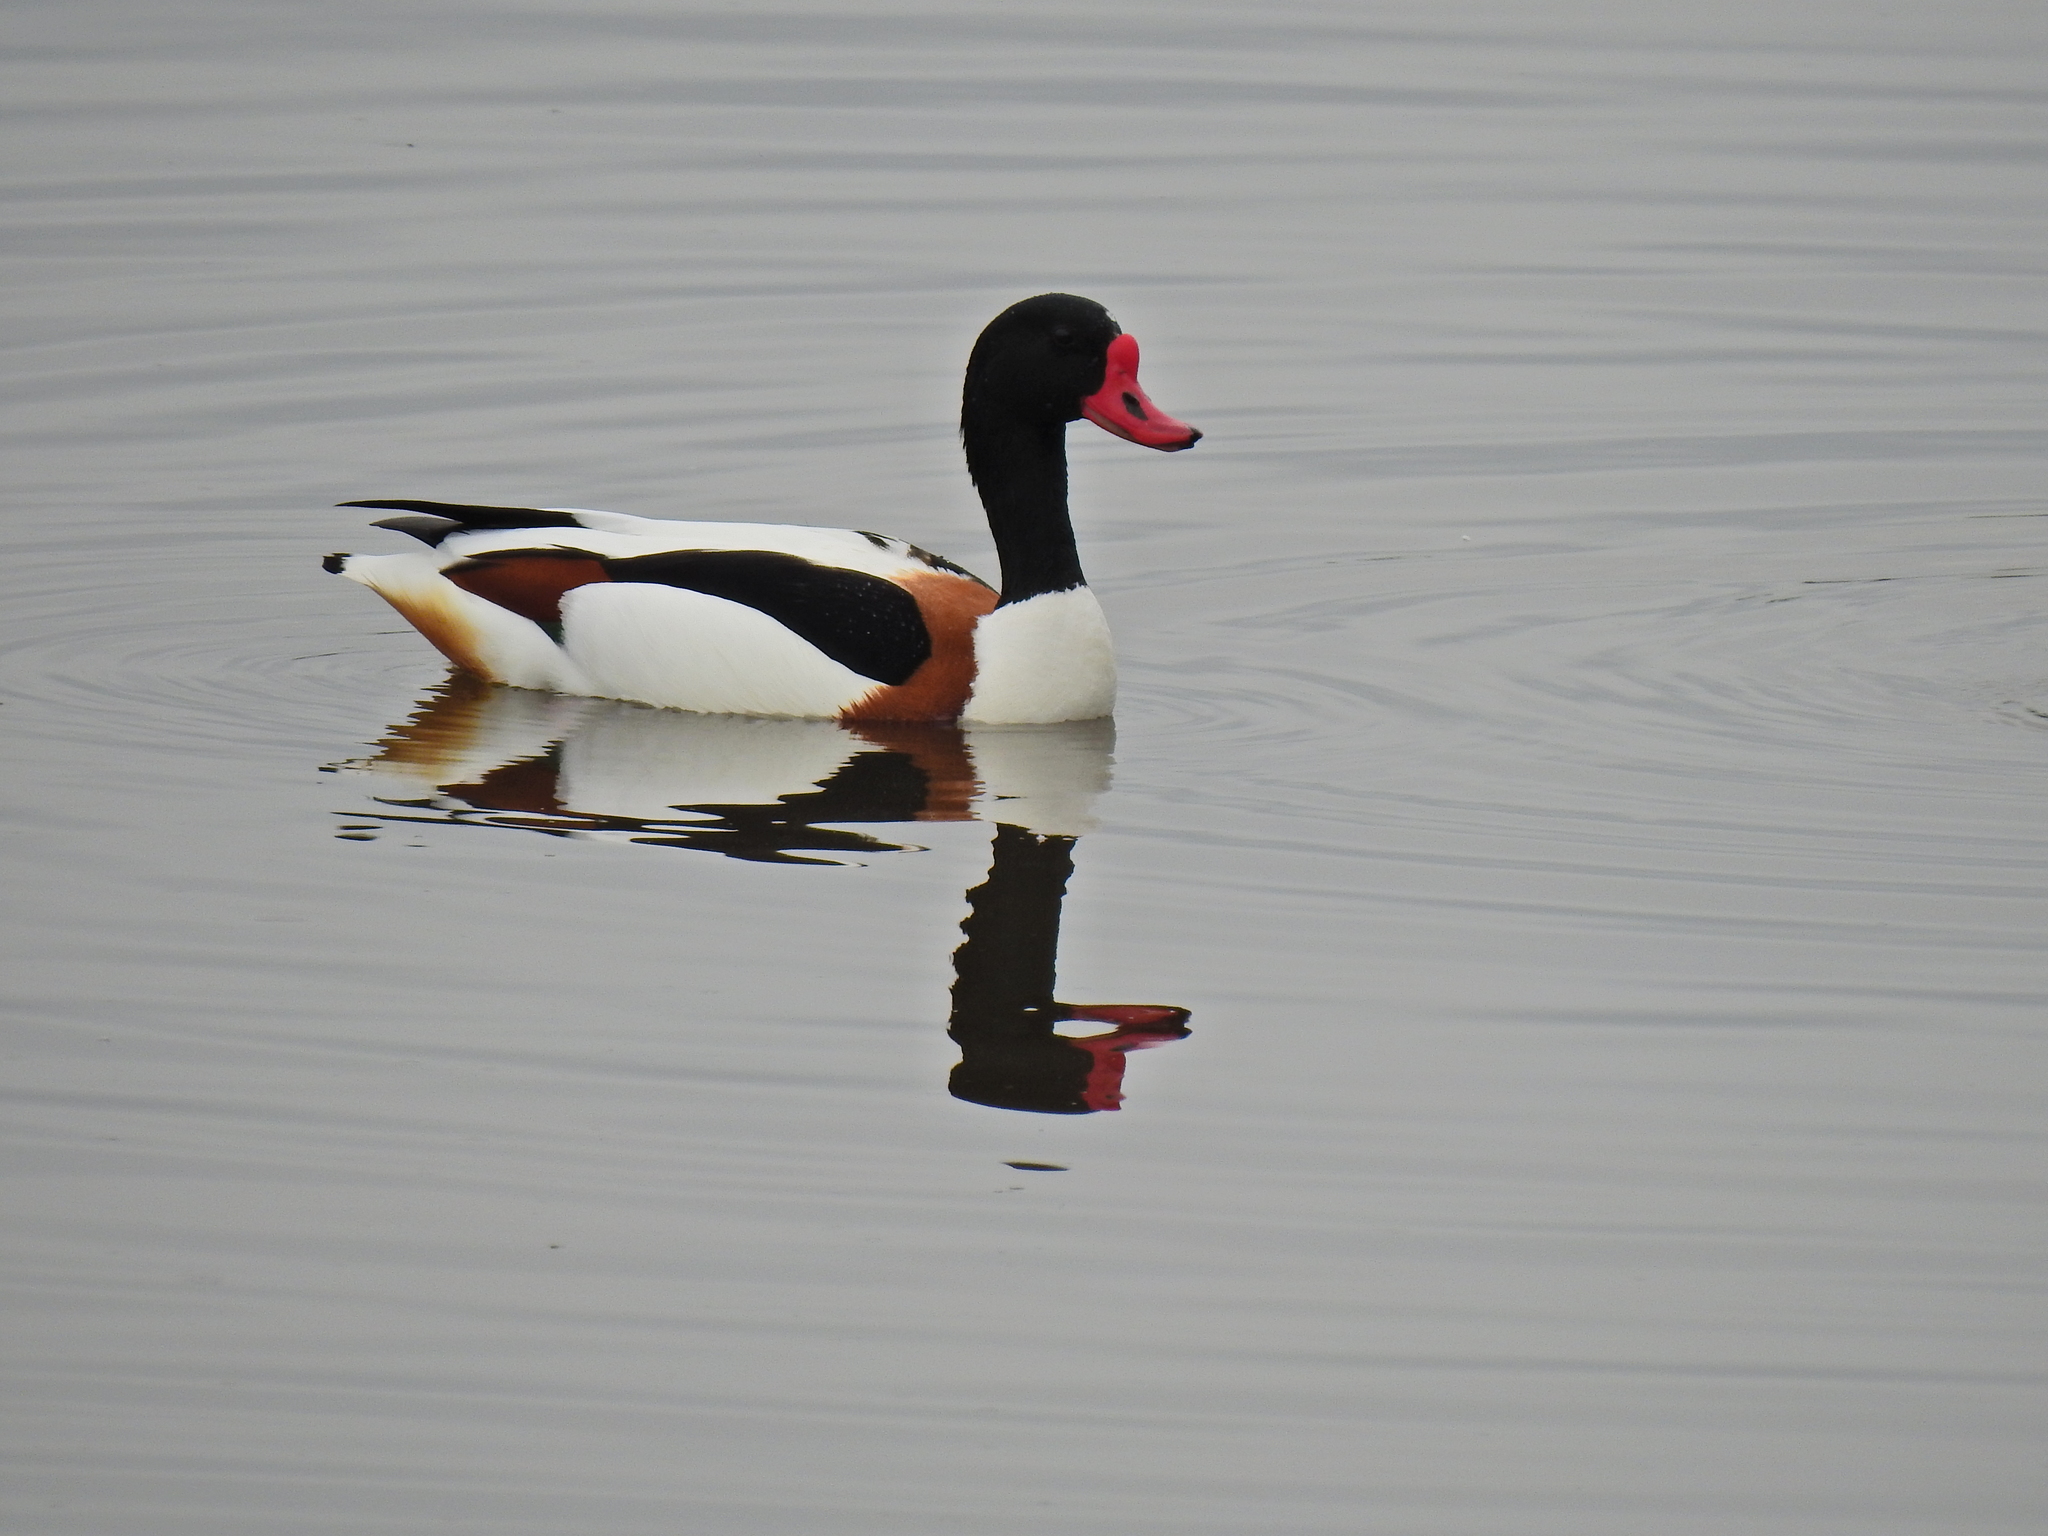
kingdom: Animalia
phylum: Chordata
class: Aves
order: Anseriformes
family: Anatidae
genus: Tadorna
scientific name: Tadorna tadorna
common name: Common shelduck
